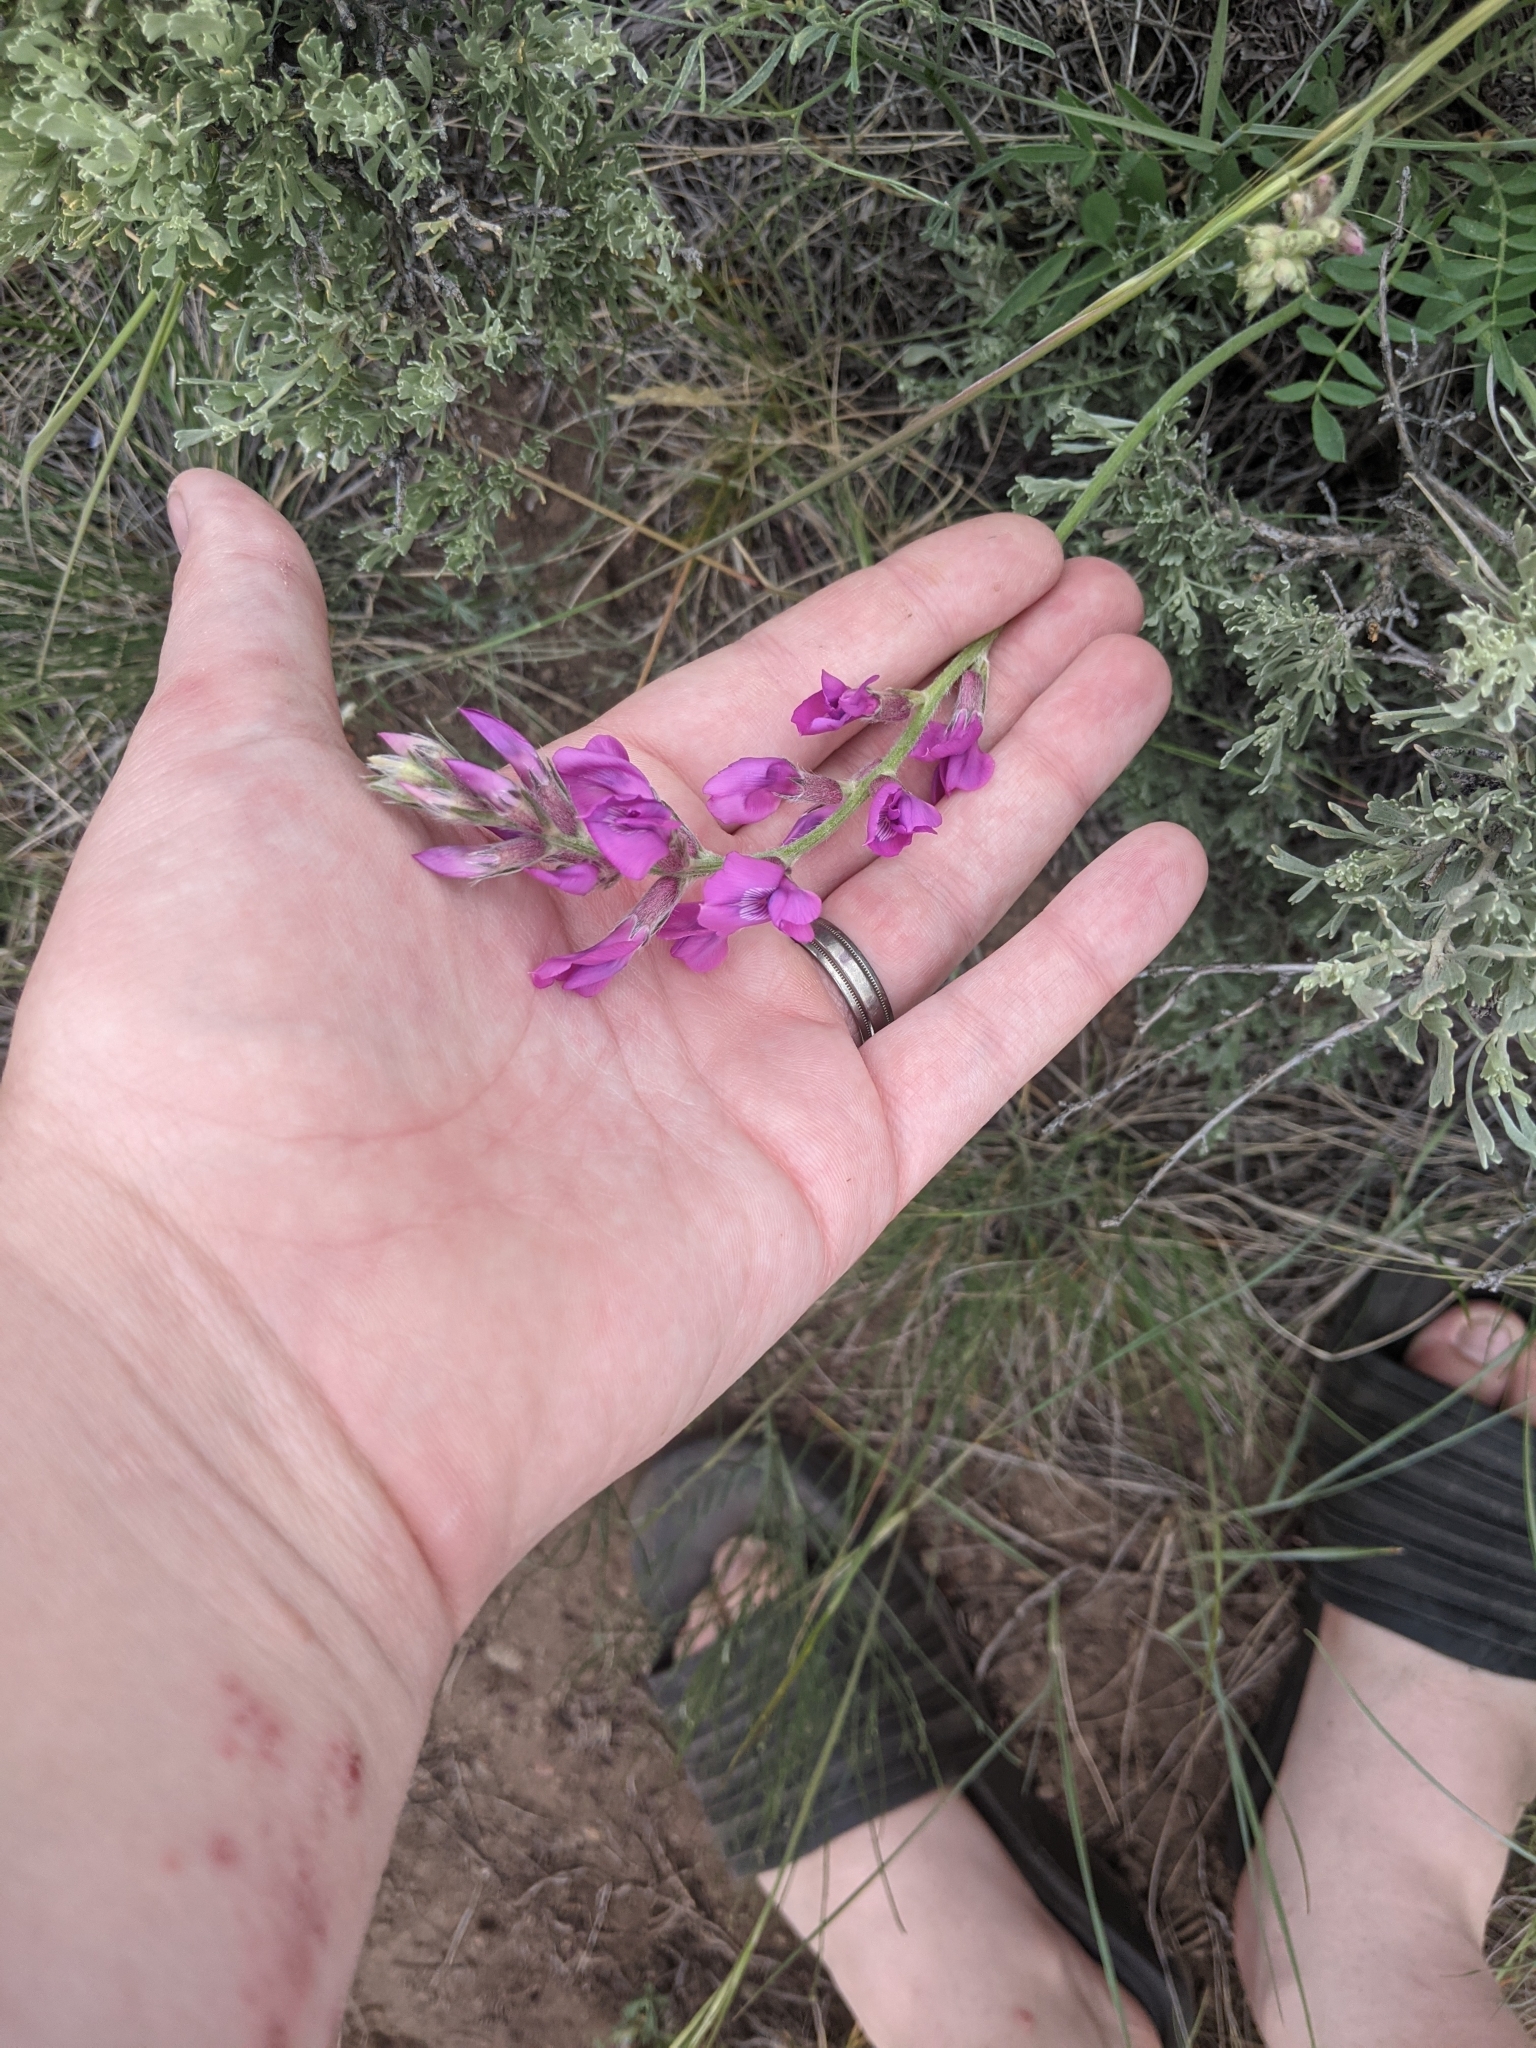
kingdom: Plantae
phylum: Tracheophyta
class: Magnoliopsida
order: Fabales
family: Fabaceae
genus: Oxytropis
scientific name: Oxytropis lambertii
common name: Purple locoweed
